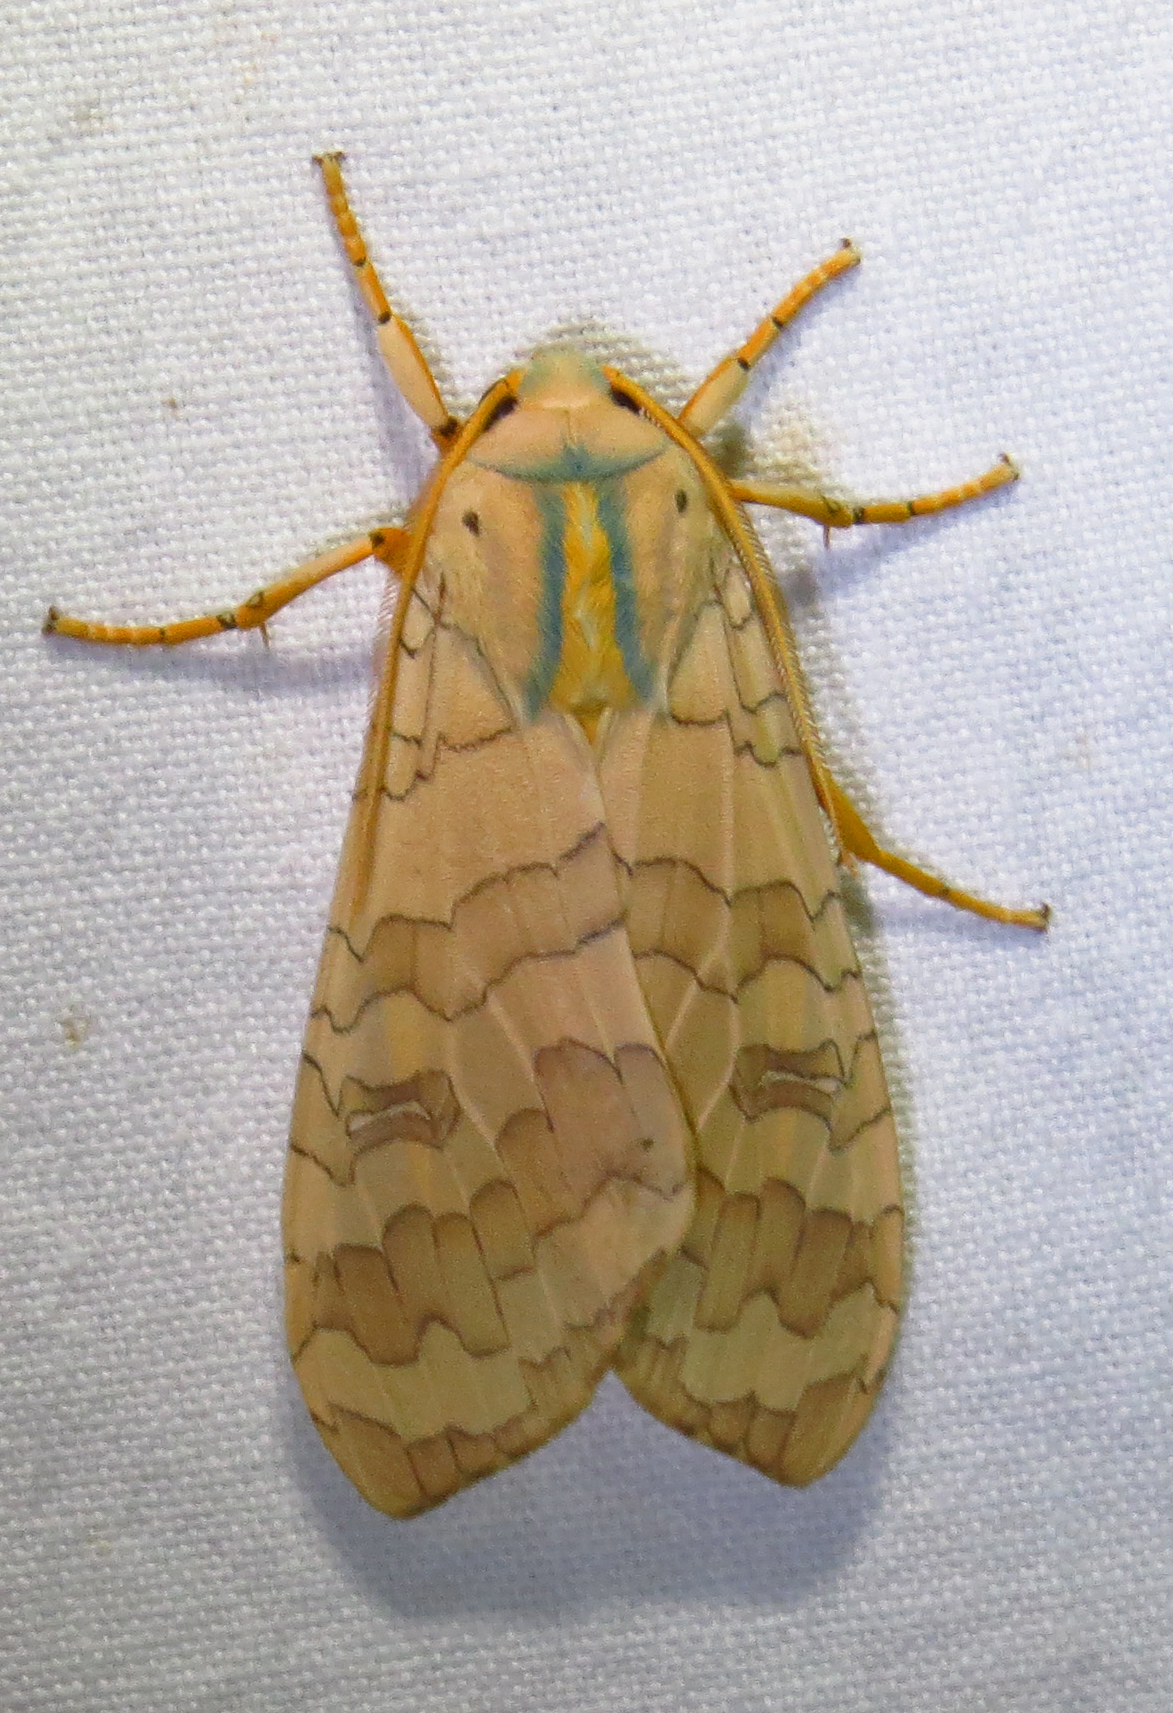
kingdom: Animalia
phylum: Arthropoda
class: Insecta
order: Lepidoptera
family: Erebidae
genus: Halysidota
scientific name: Halysidota
